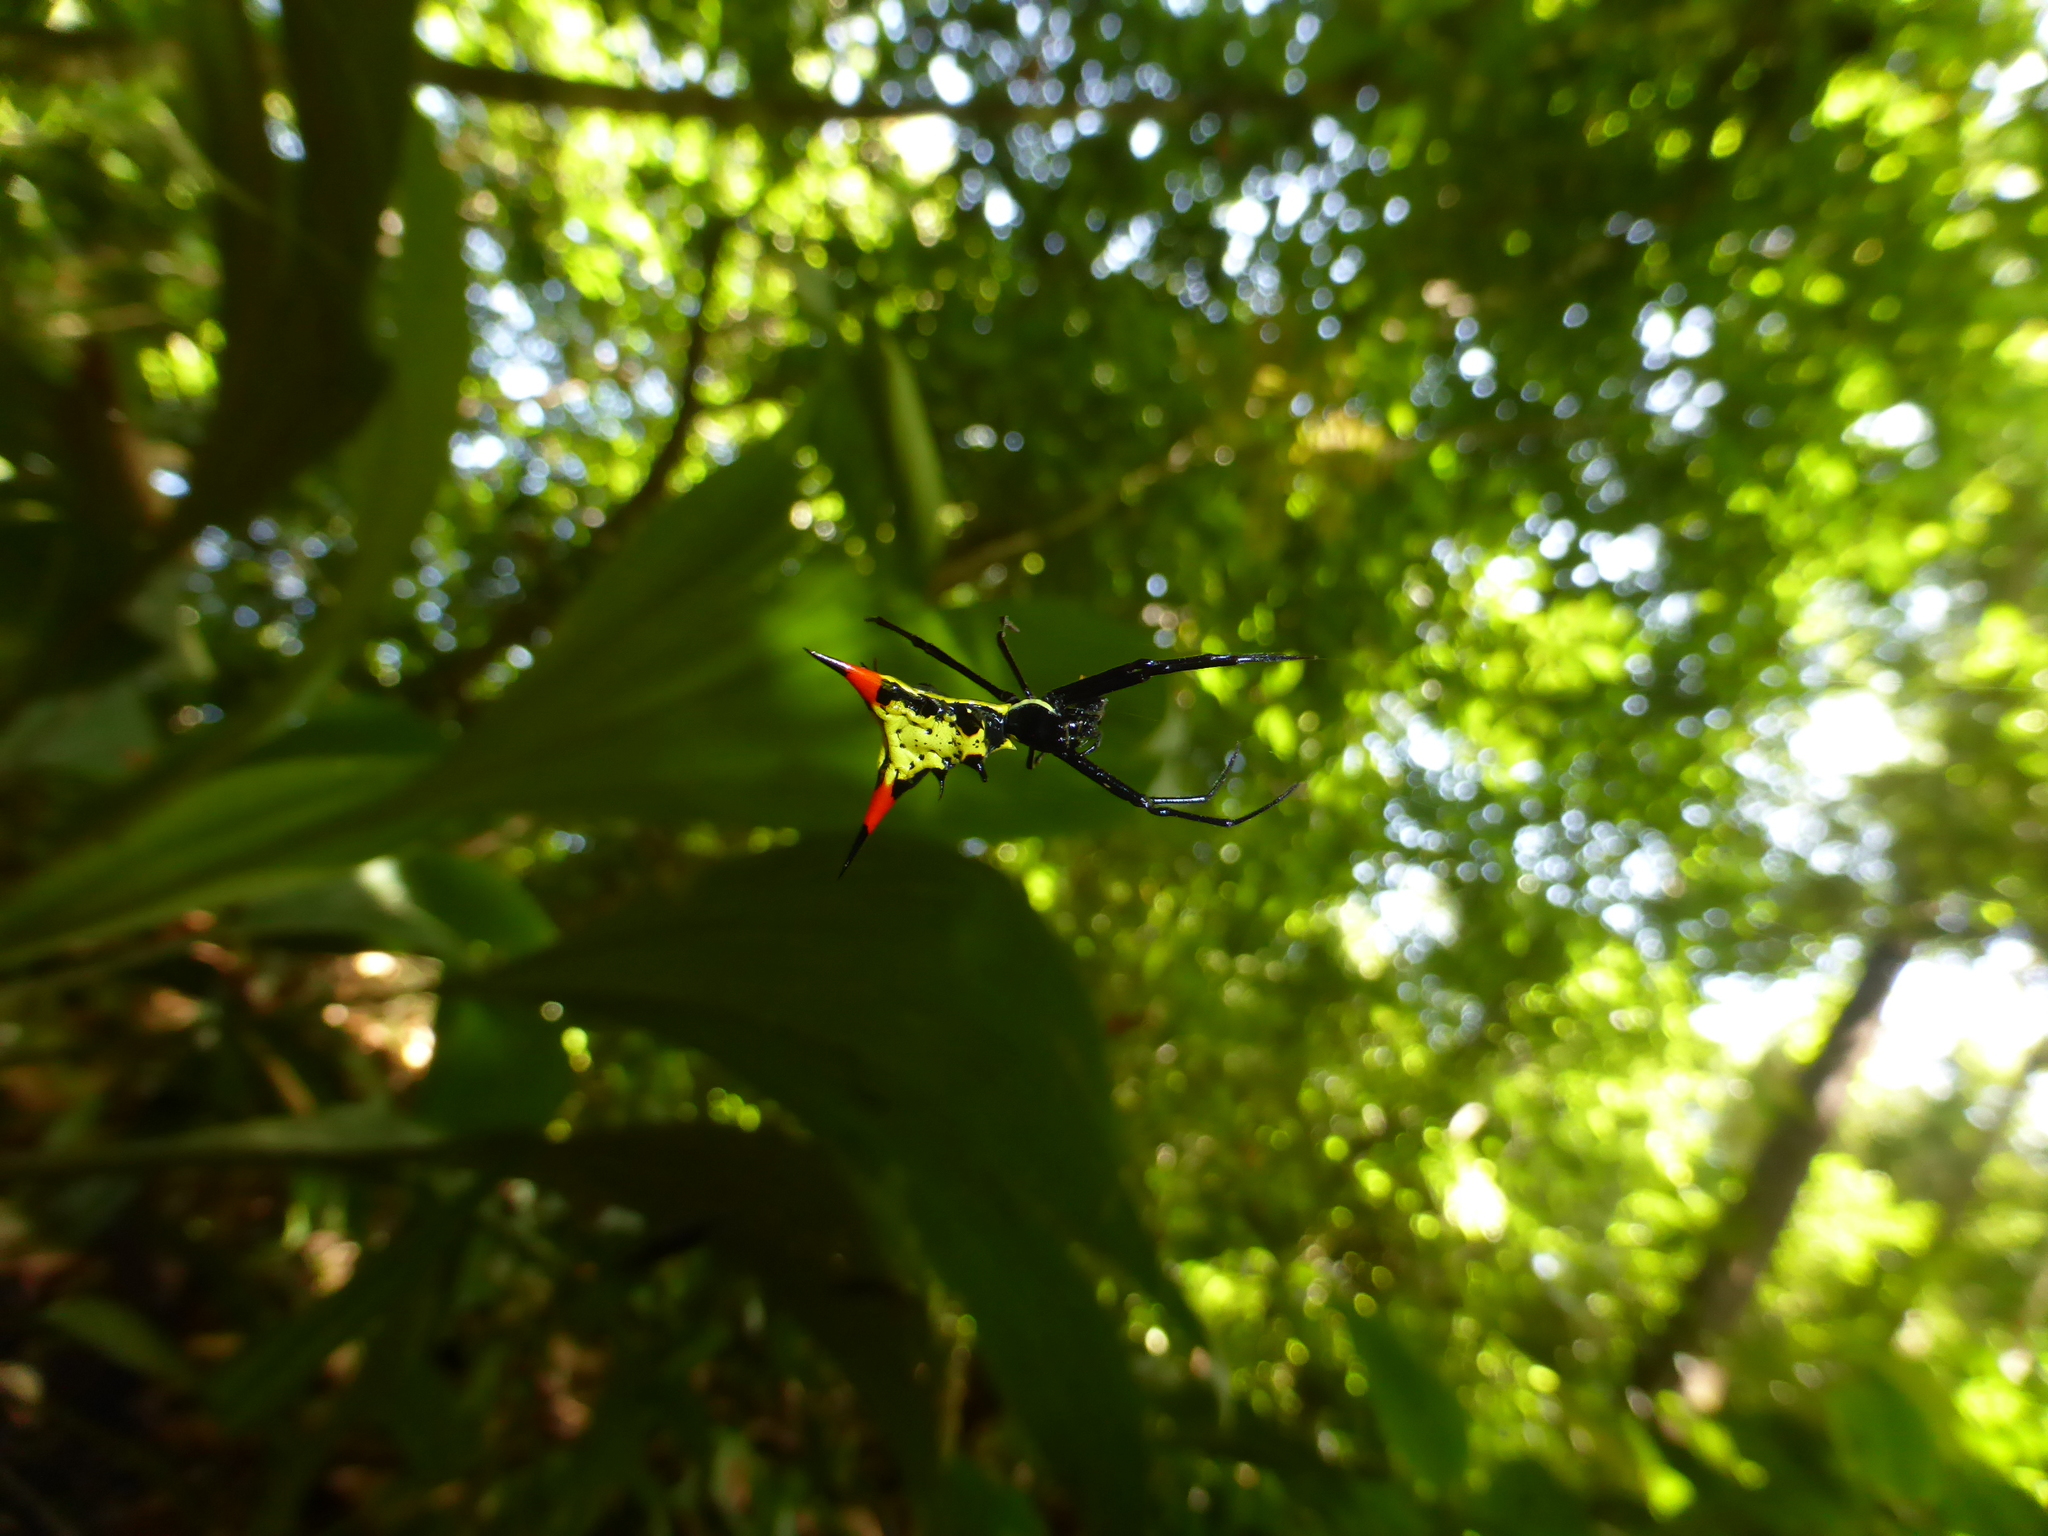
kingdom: Animalia
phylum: Arthropoda
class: Arachnida
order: Araneae
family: Araneidae
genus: Micrathena
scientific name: Micrathena schreibersi
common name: Orb weavers
